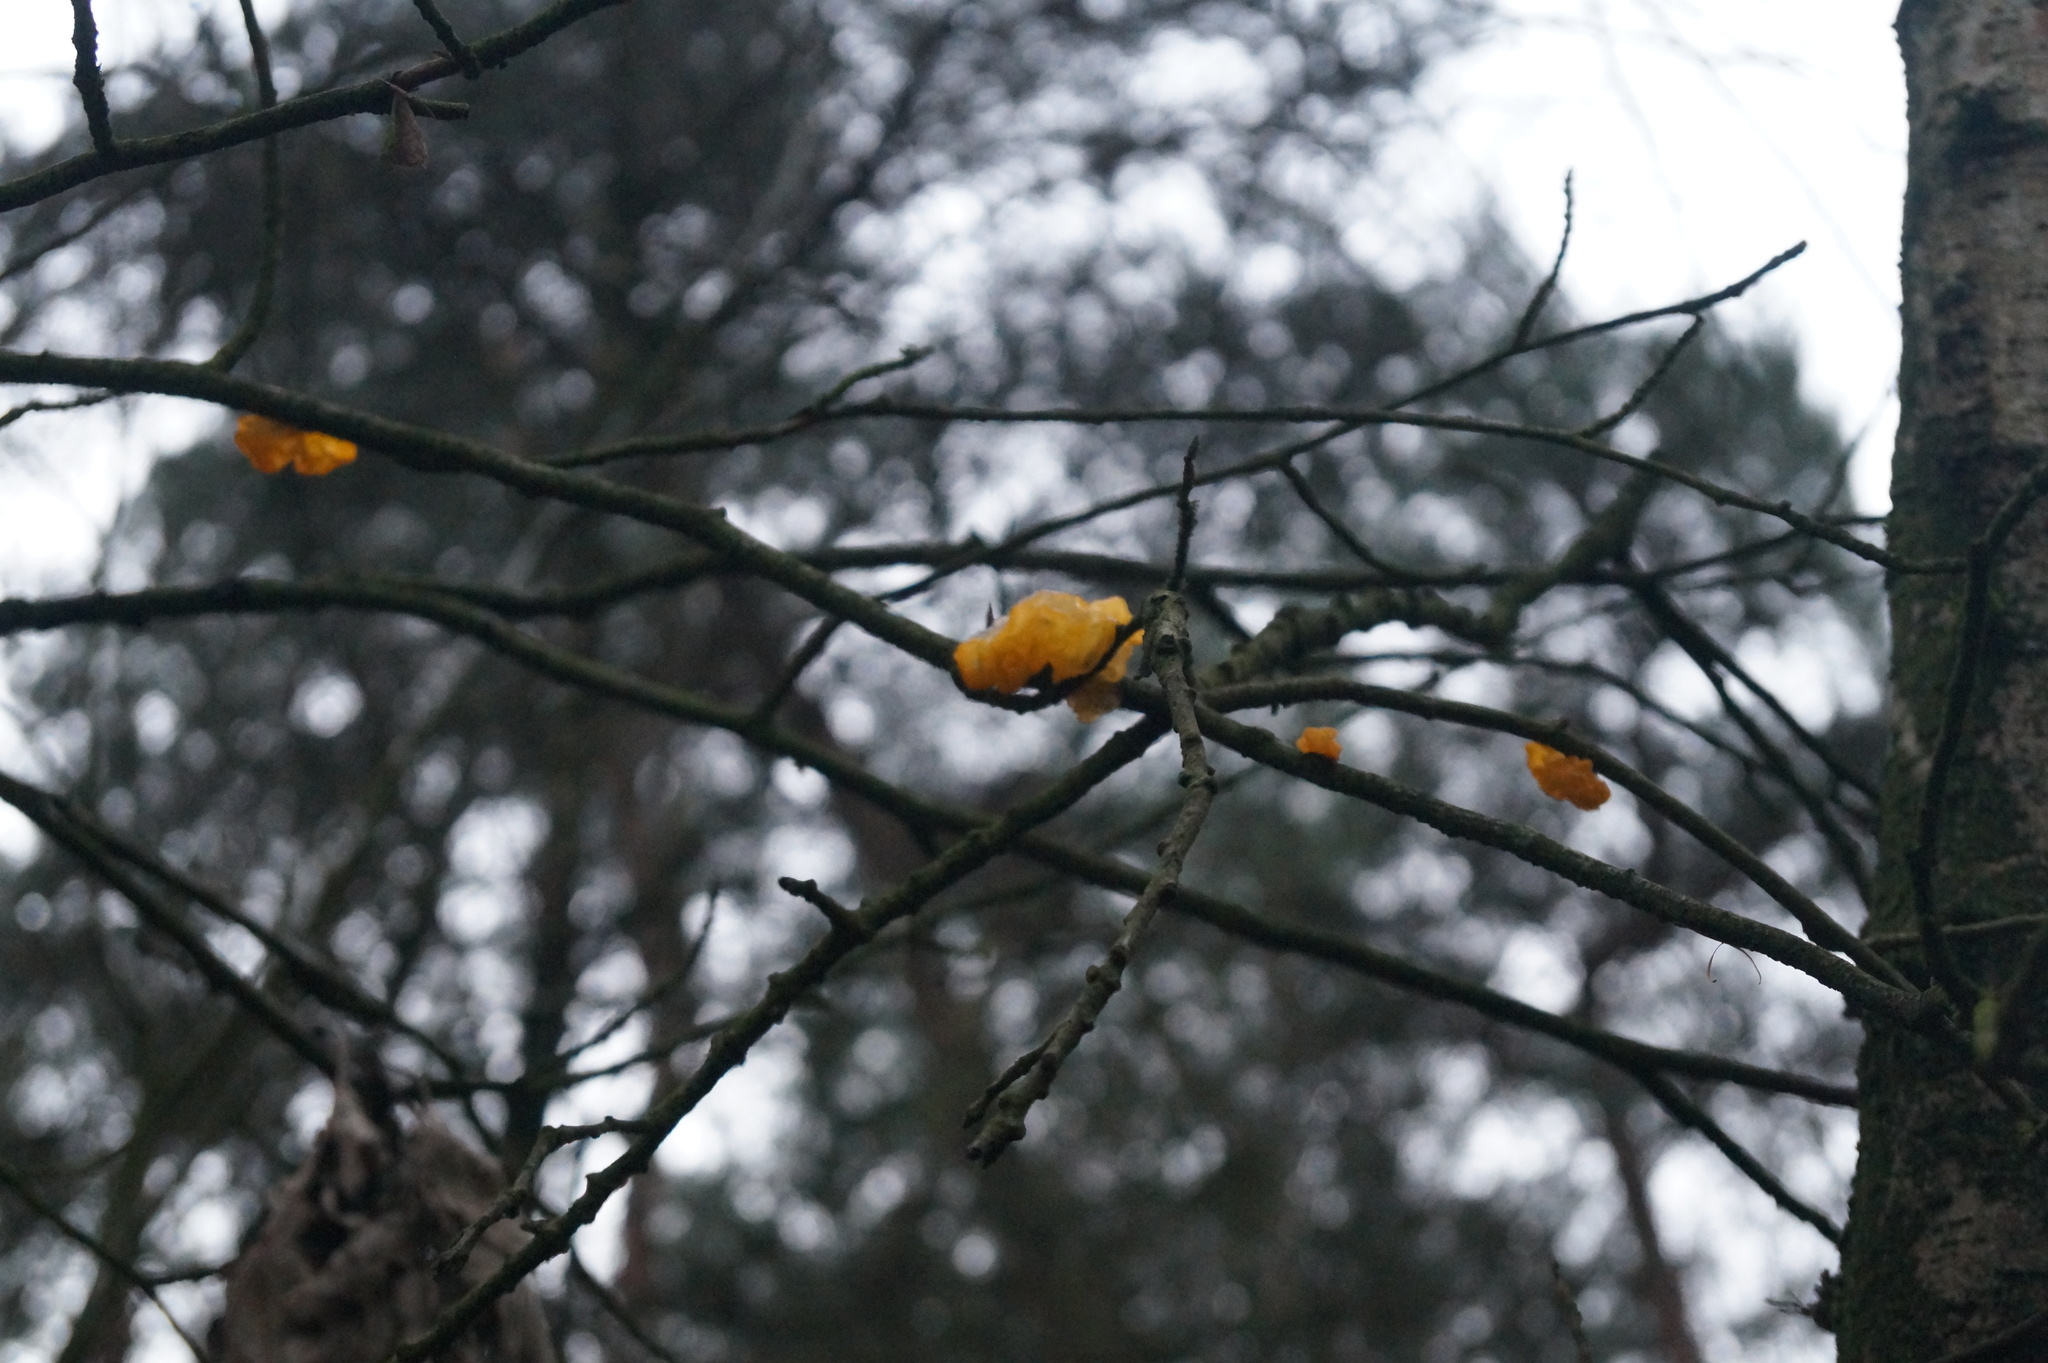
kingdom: Fungi
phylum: Basidiomycota
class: Tremellomycetes
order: Tremellales
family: Tremellaceae
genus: Tremella
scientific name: Tremella mesenterica
